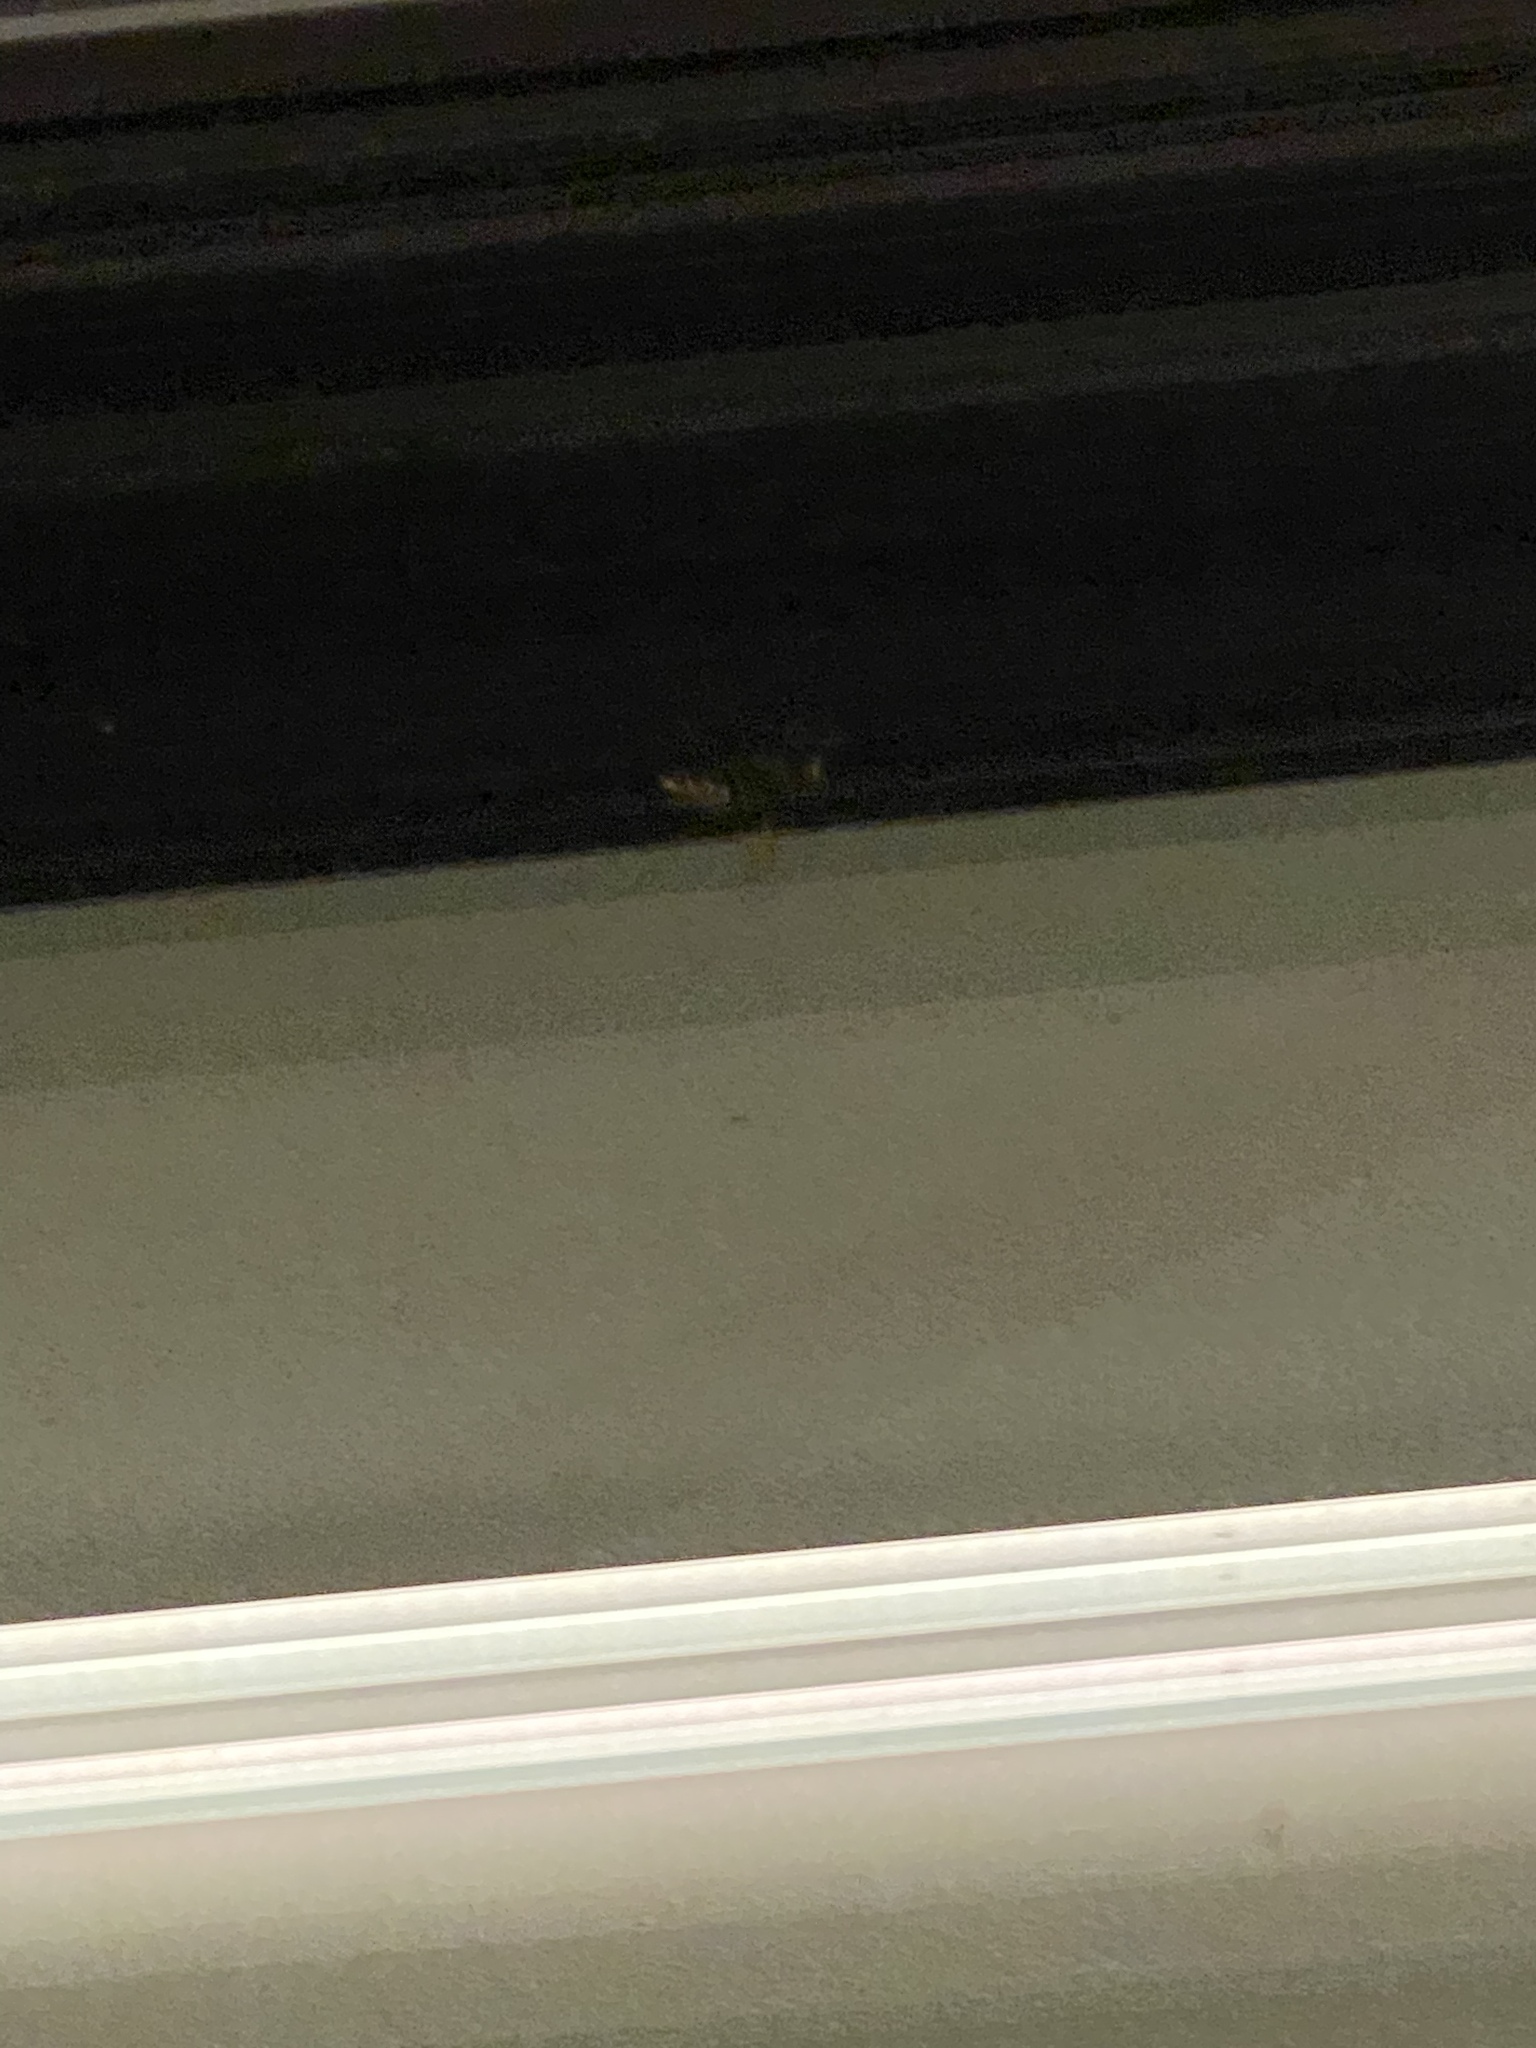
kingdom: Animalia
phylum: Arthropoda
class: Insecta
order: Hymenoptera
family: Vespidae
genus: Vespa
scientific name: Vespa crabro
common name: Hornet
